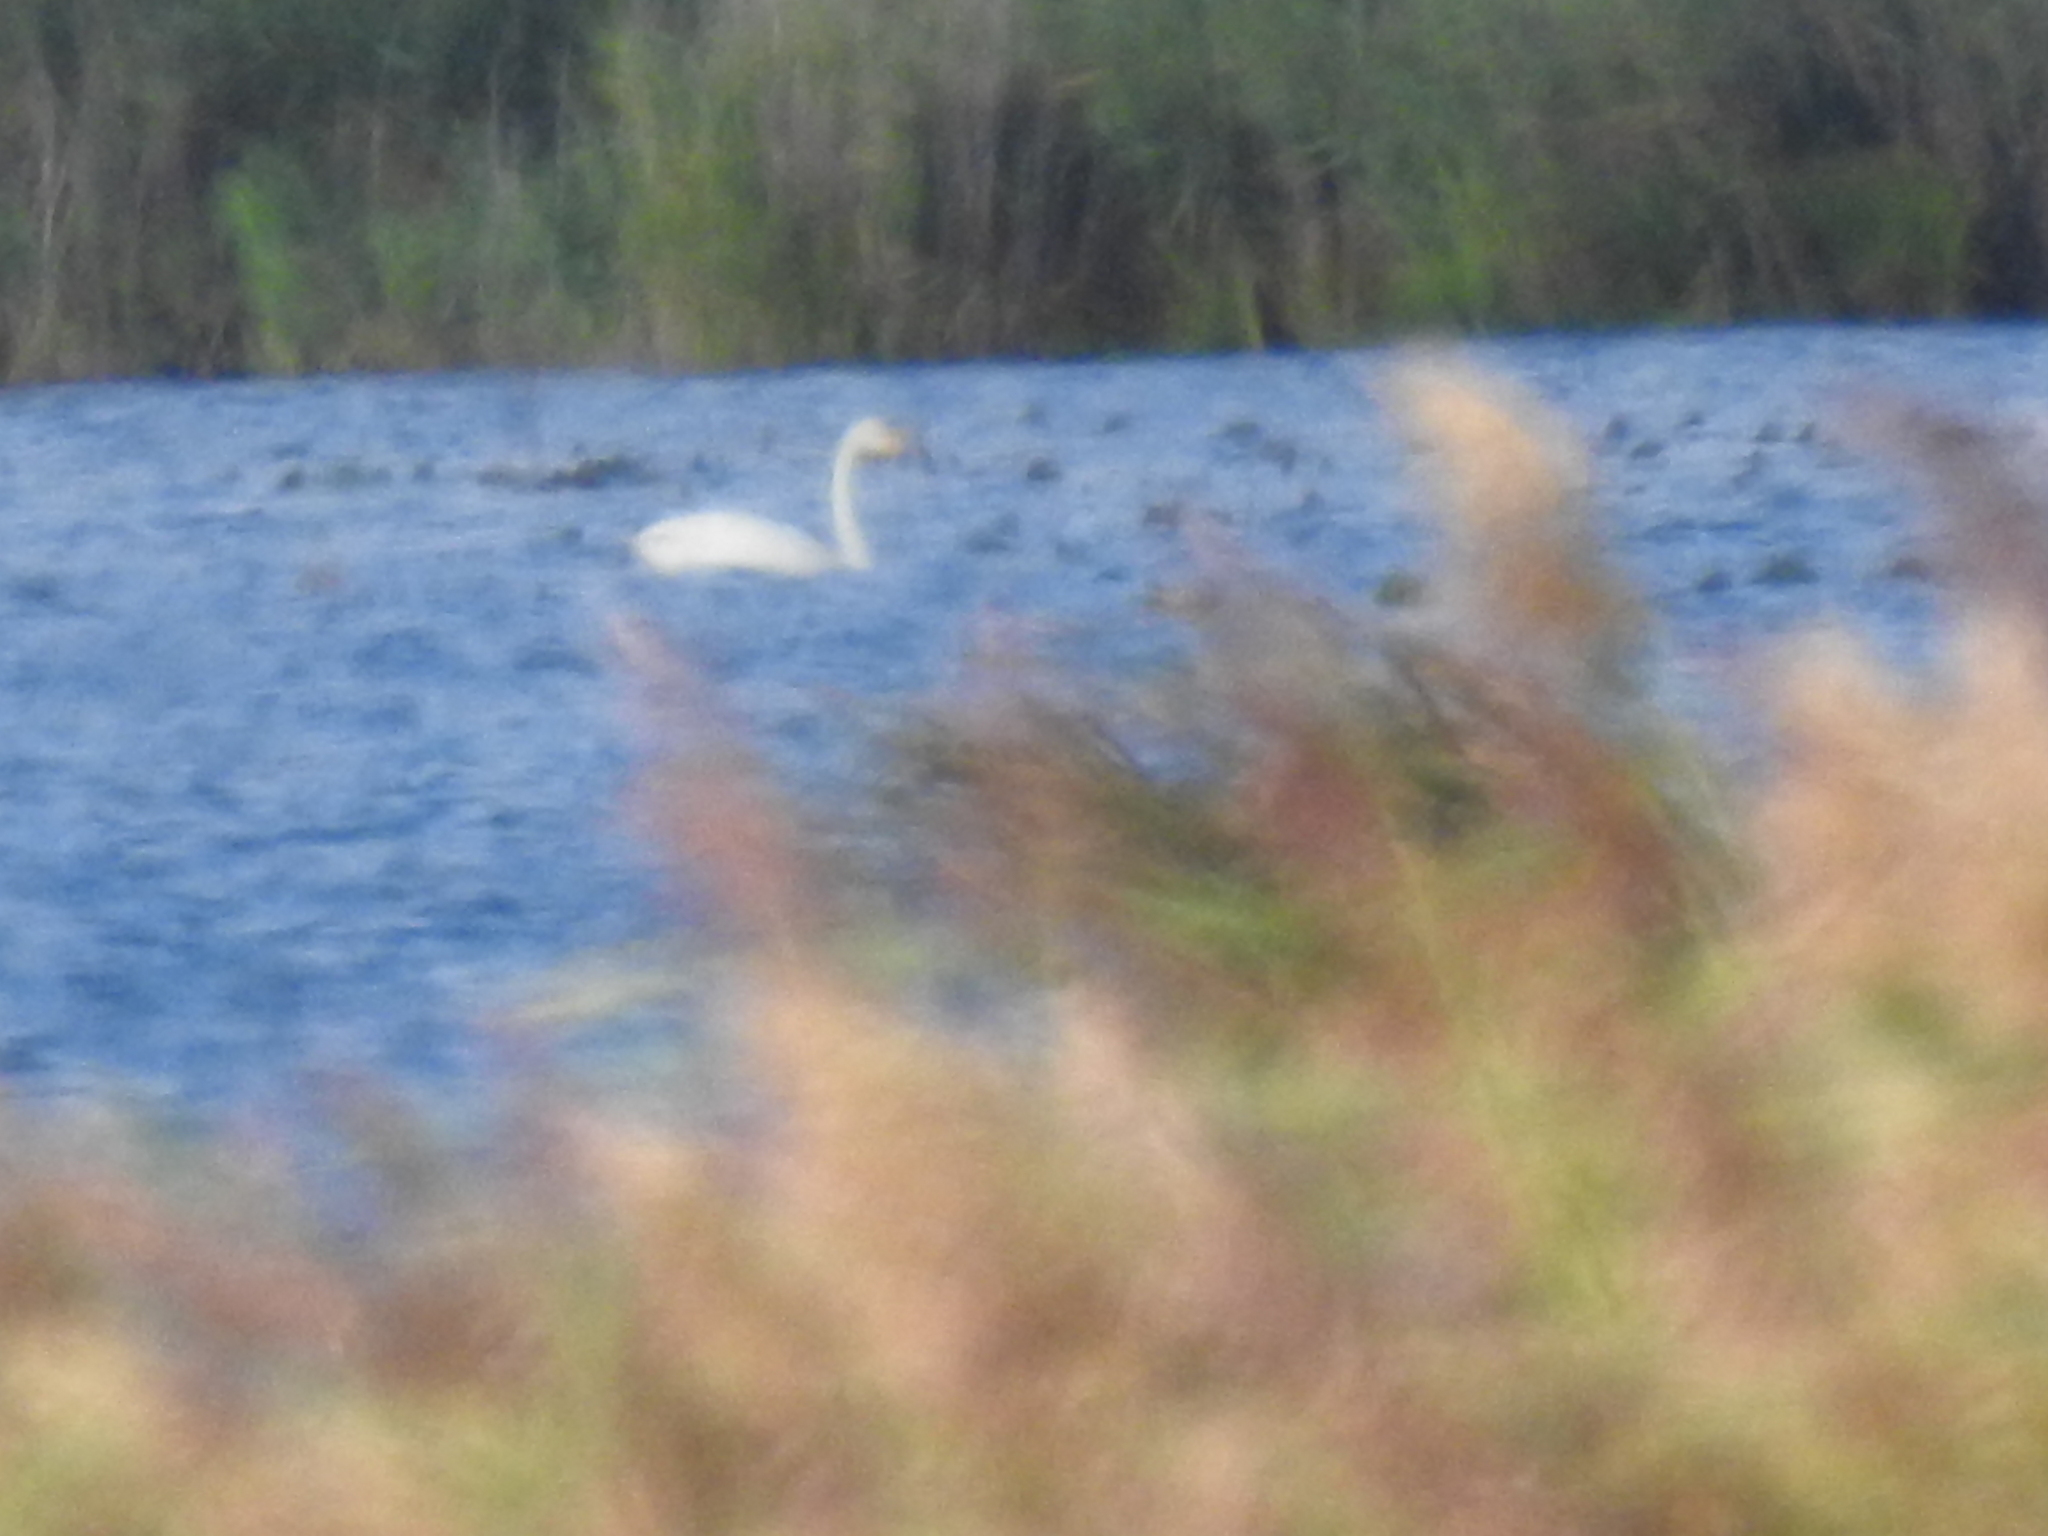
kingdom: Animalia
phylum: Chordata
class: Aves
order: Anseriformes
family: Anatidae
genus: Cygnus
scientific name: Cygnus cygnus
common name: Whooper swan
